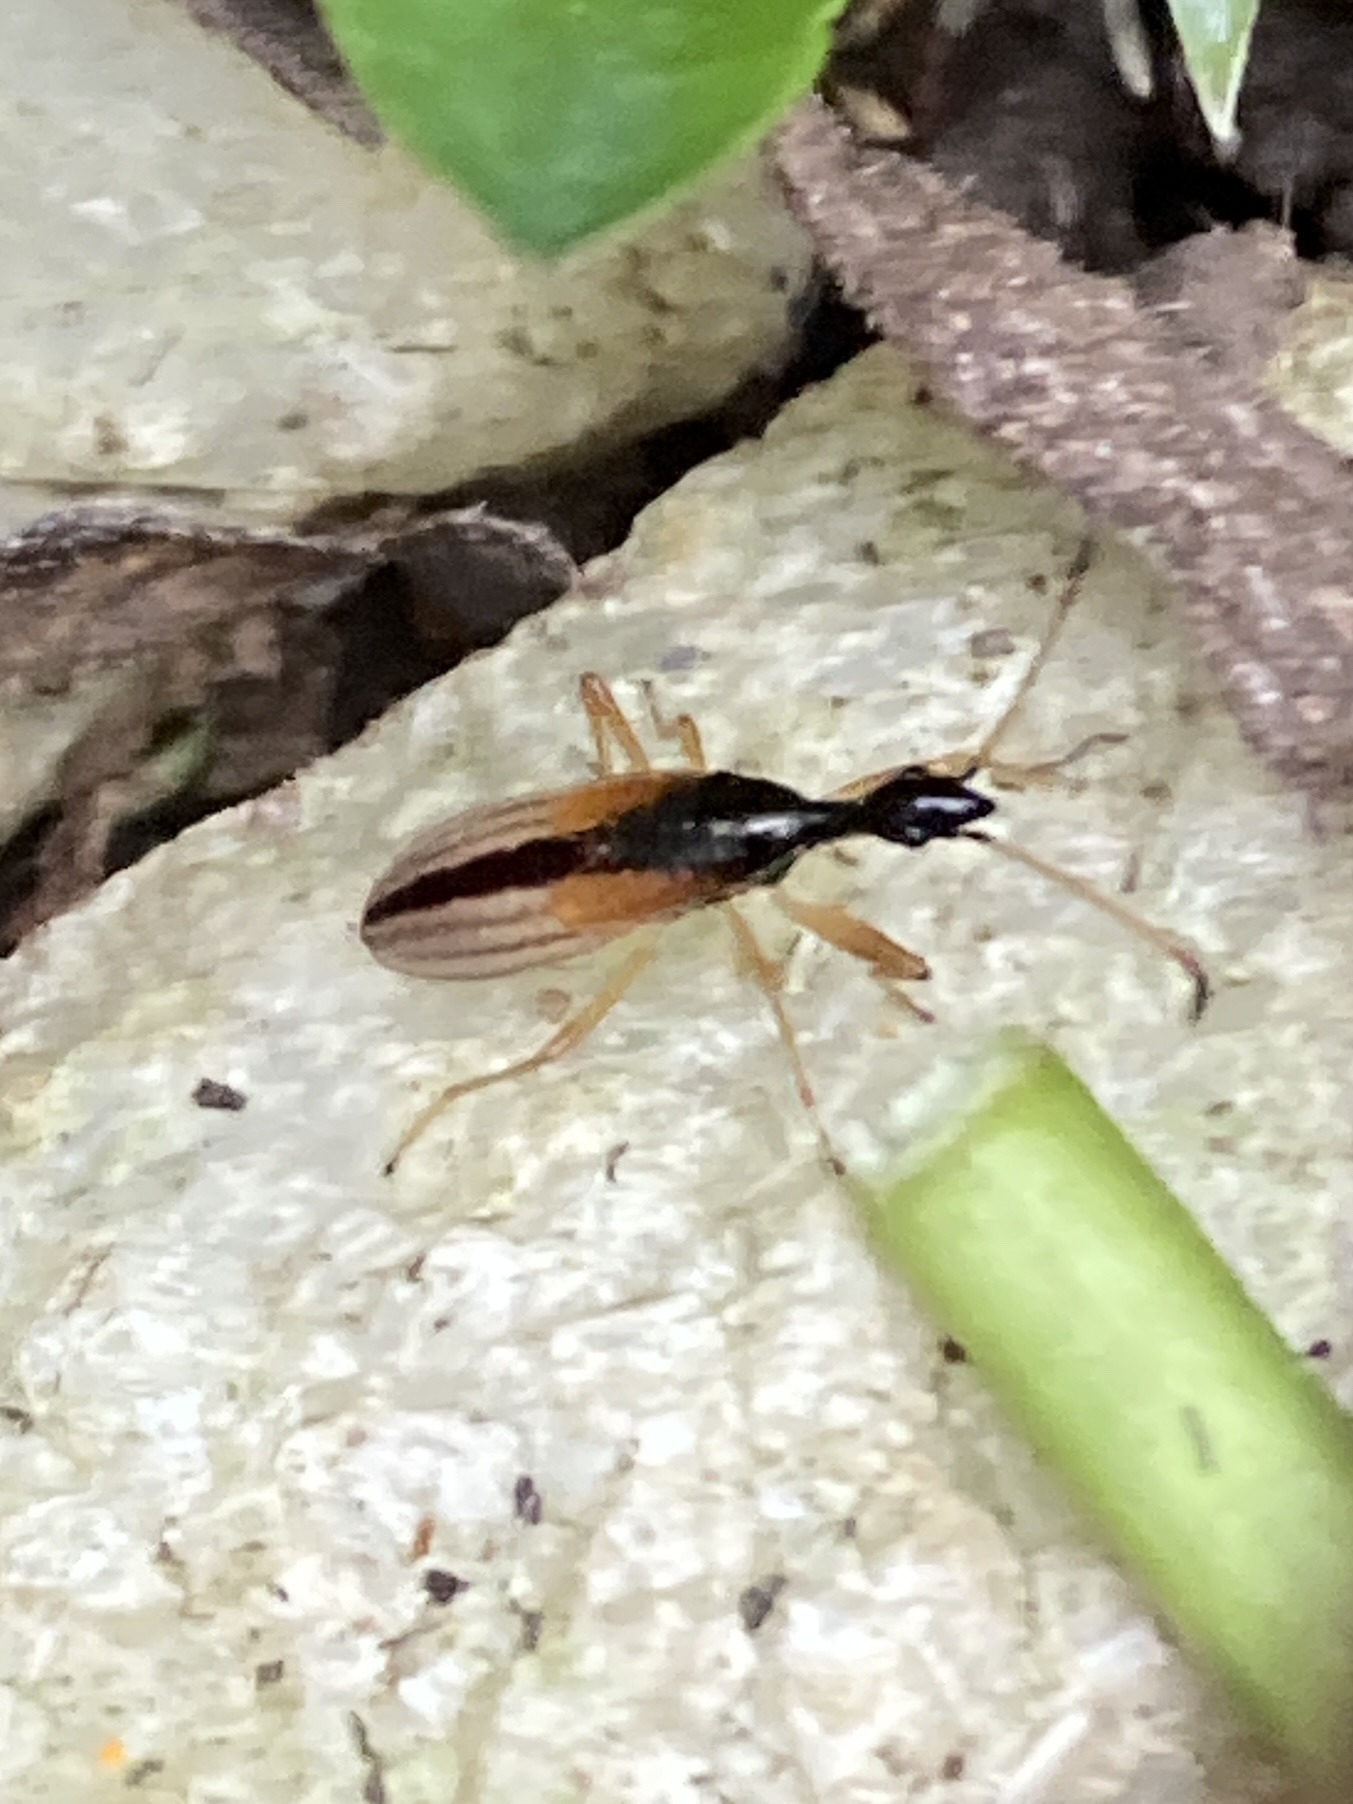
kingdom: Animalia
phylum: Arthropoda
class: Insecta
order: Hemiptera
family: Rhyparochromidae
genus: Myodocha
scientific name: Myodocha serripes
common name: Long-necked seed bug
